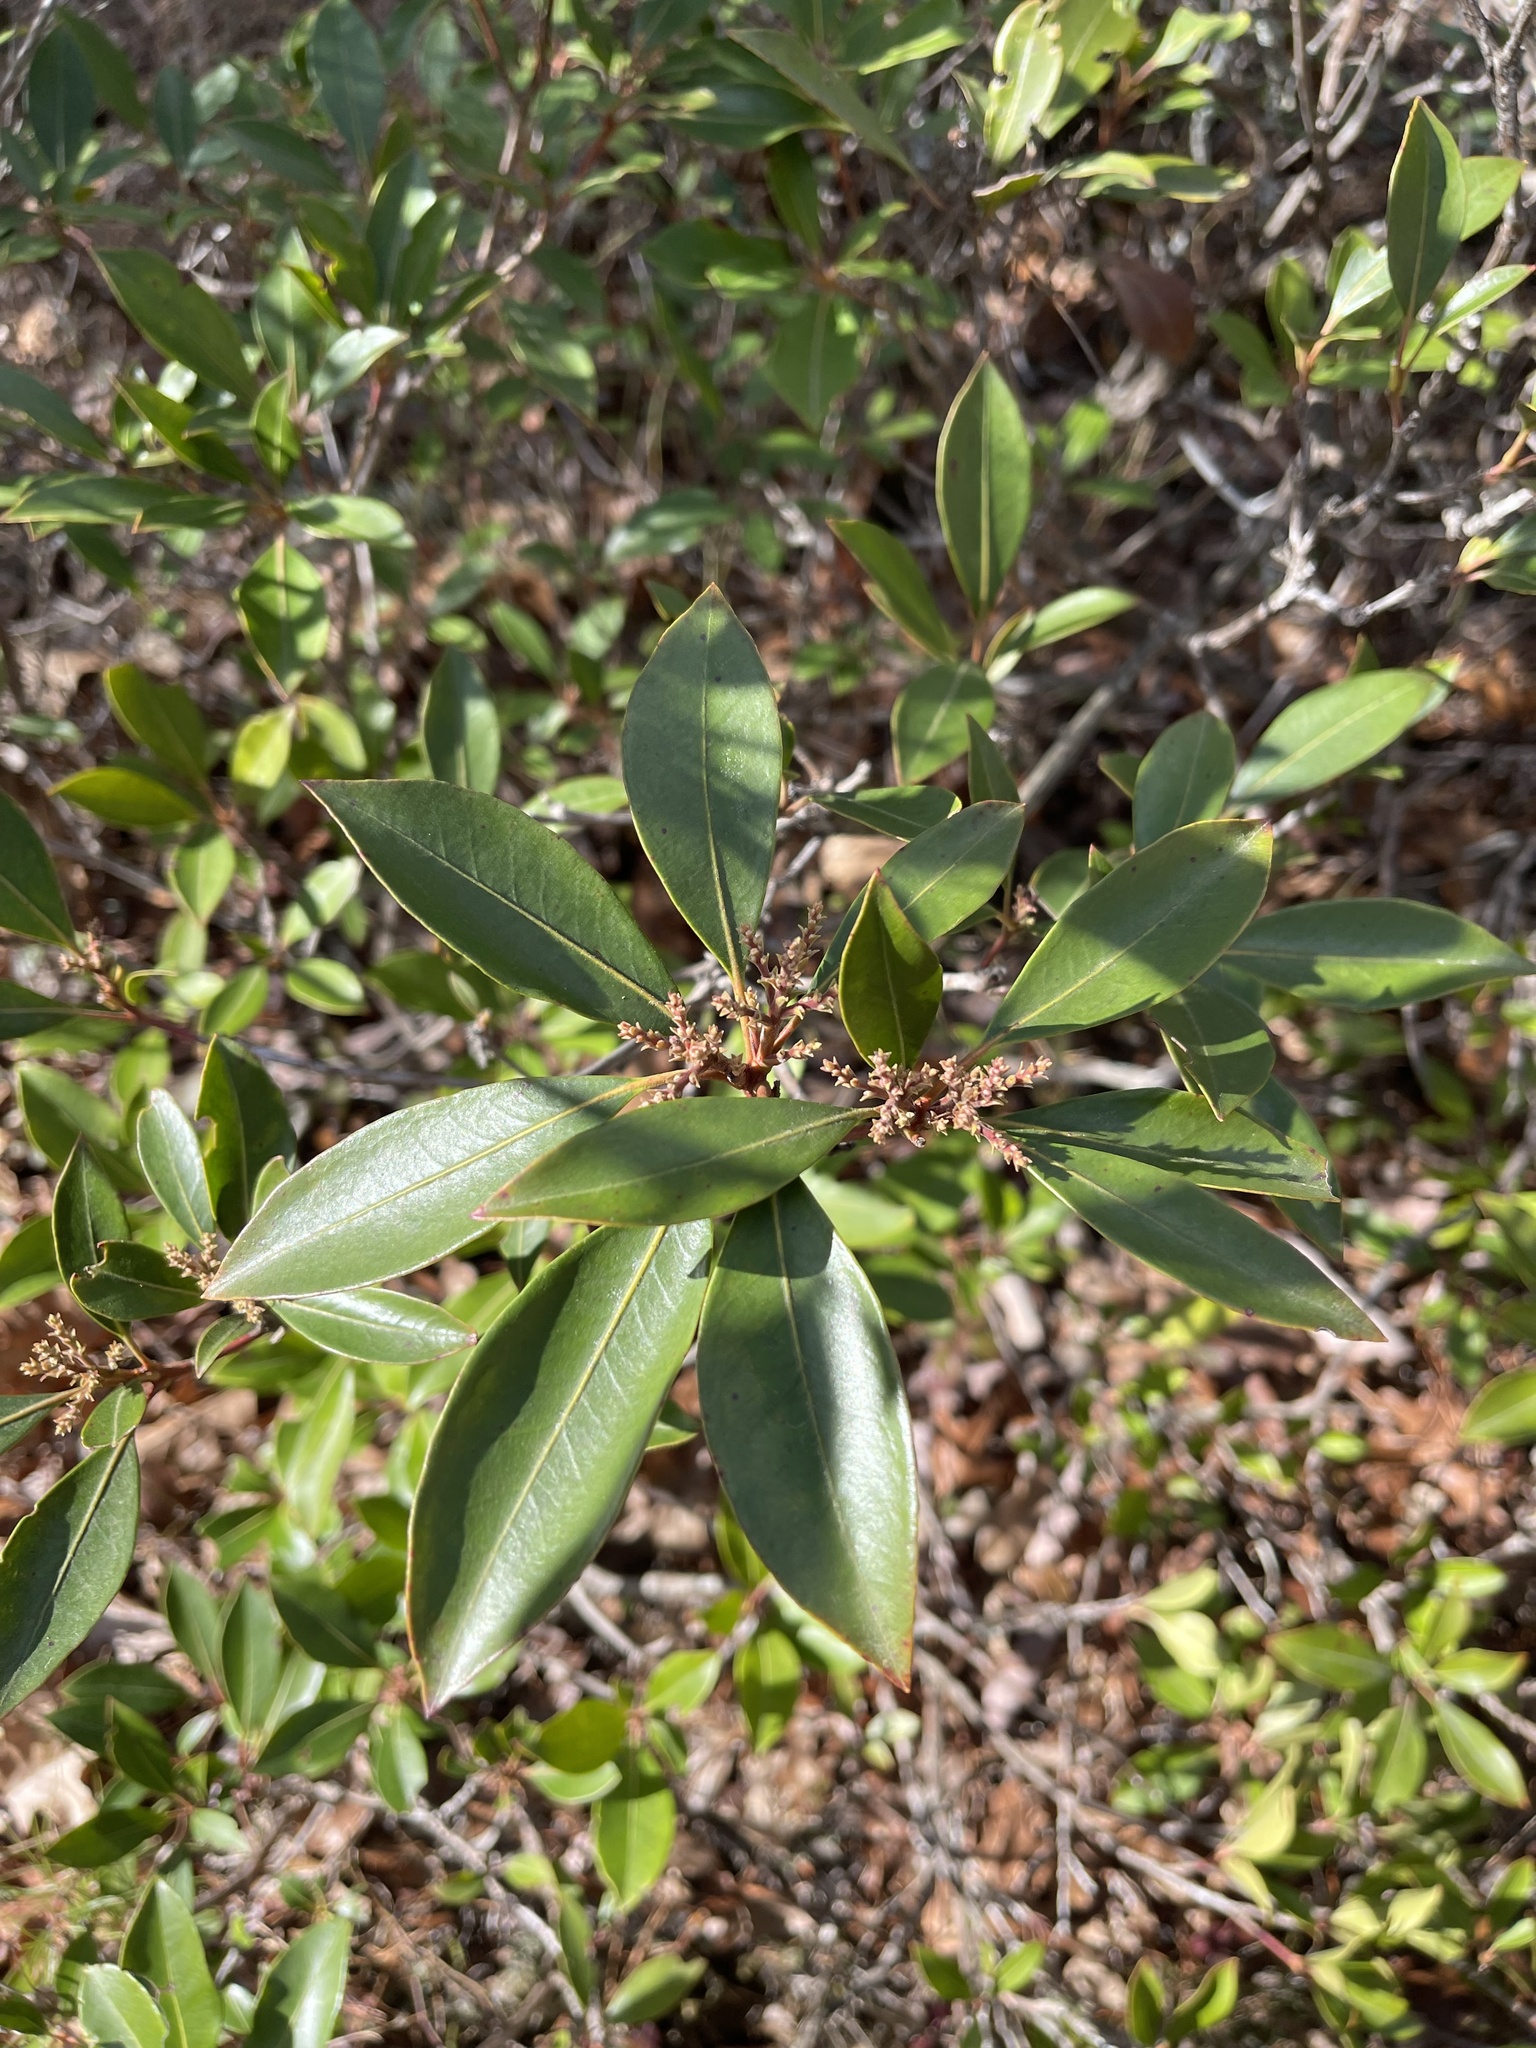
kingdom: Plantae
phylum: Tracheophyta
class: Magnoliopsida
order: Ericales
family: Ericaceae
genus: Kalmia
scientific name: Kalmia latifolia
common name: Mountain-laurel
